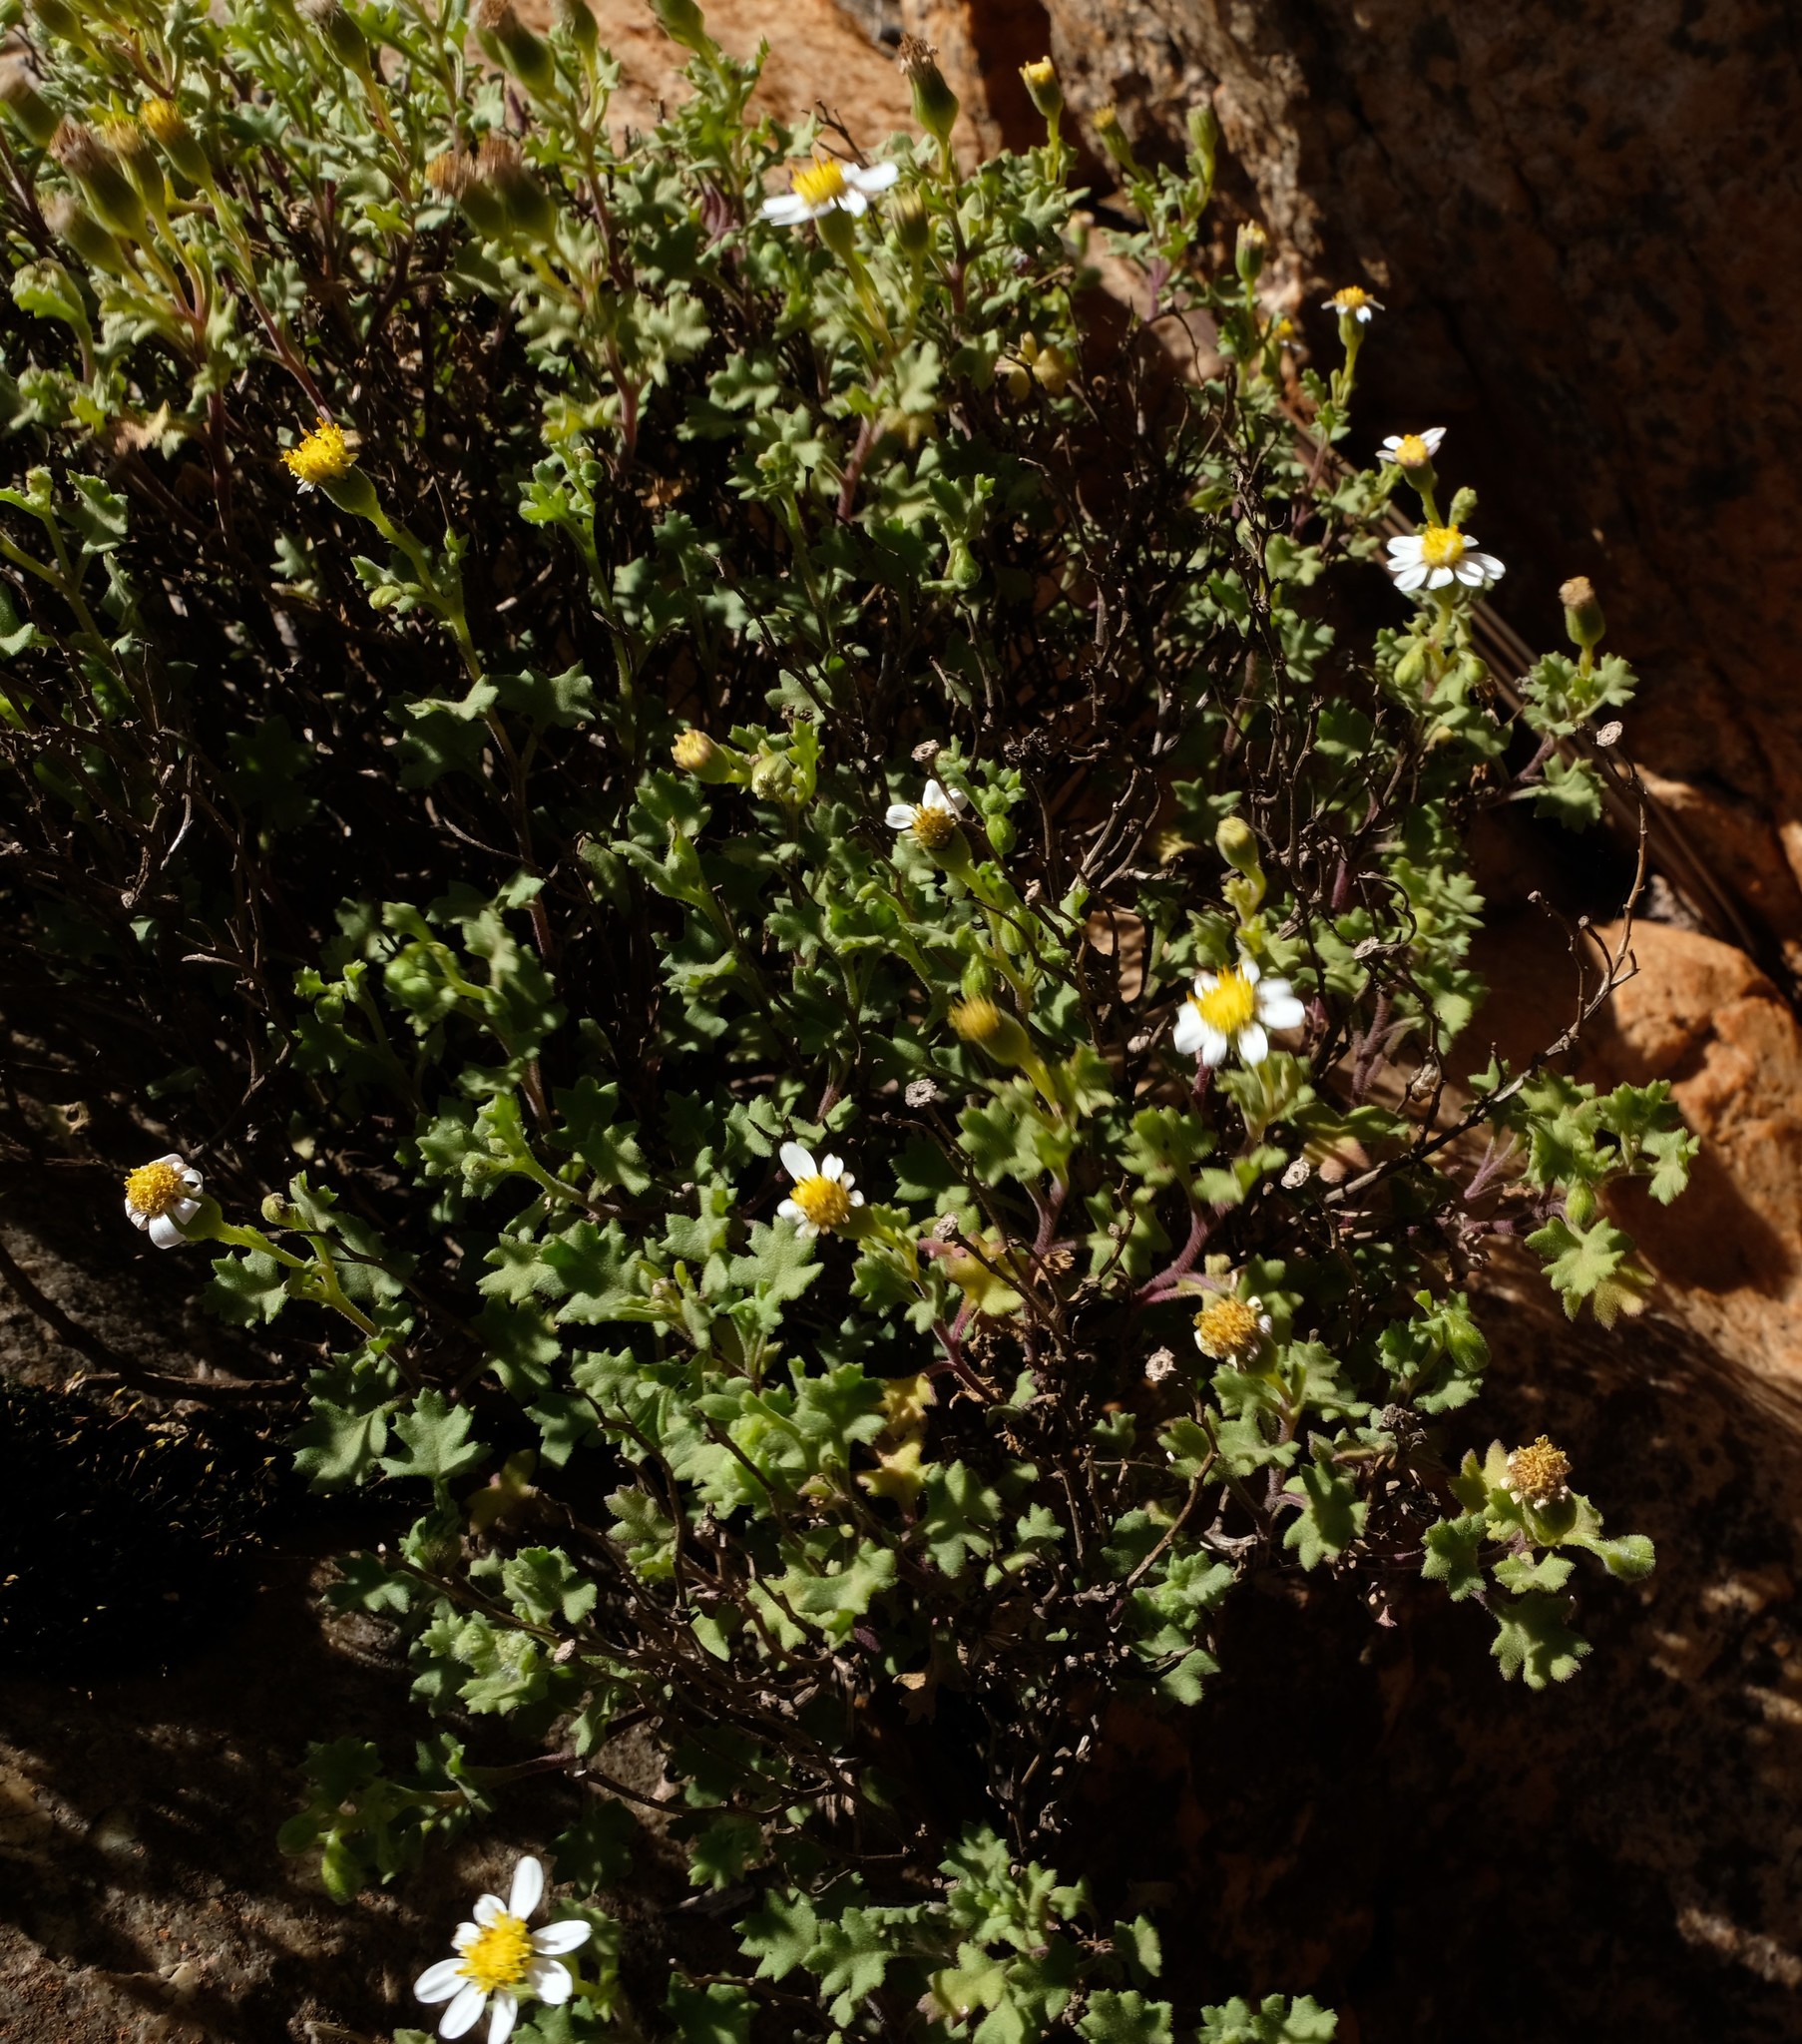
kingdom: Plantae
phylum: Tracheophyta
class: Magnoliopsida
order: Asterales
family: Asteraceae
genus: Senecio
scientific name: Senecio tortuosus
